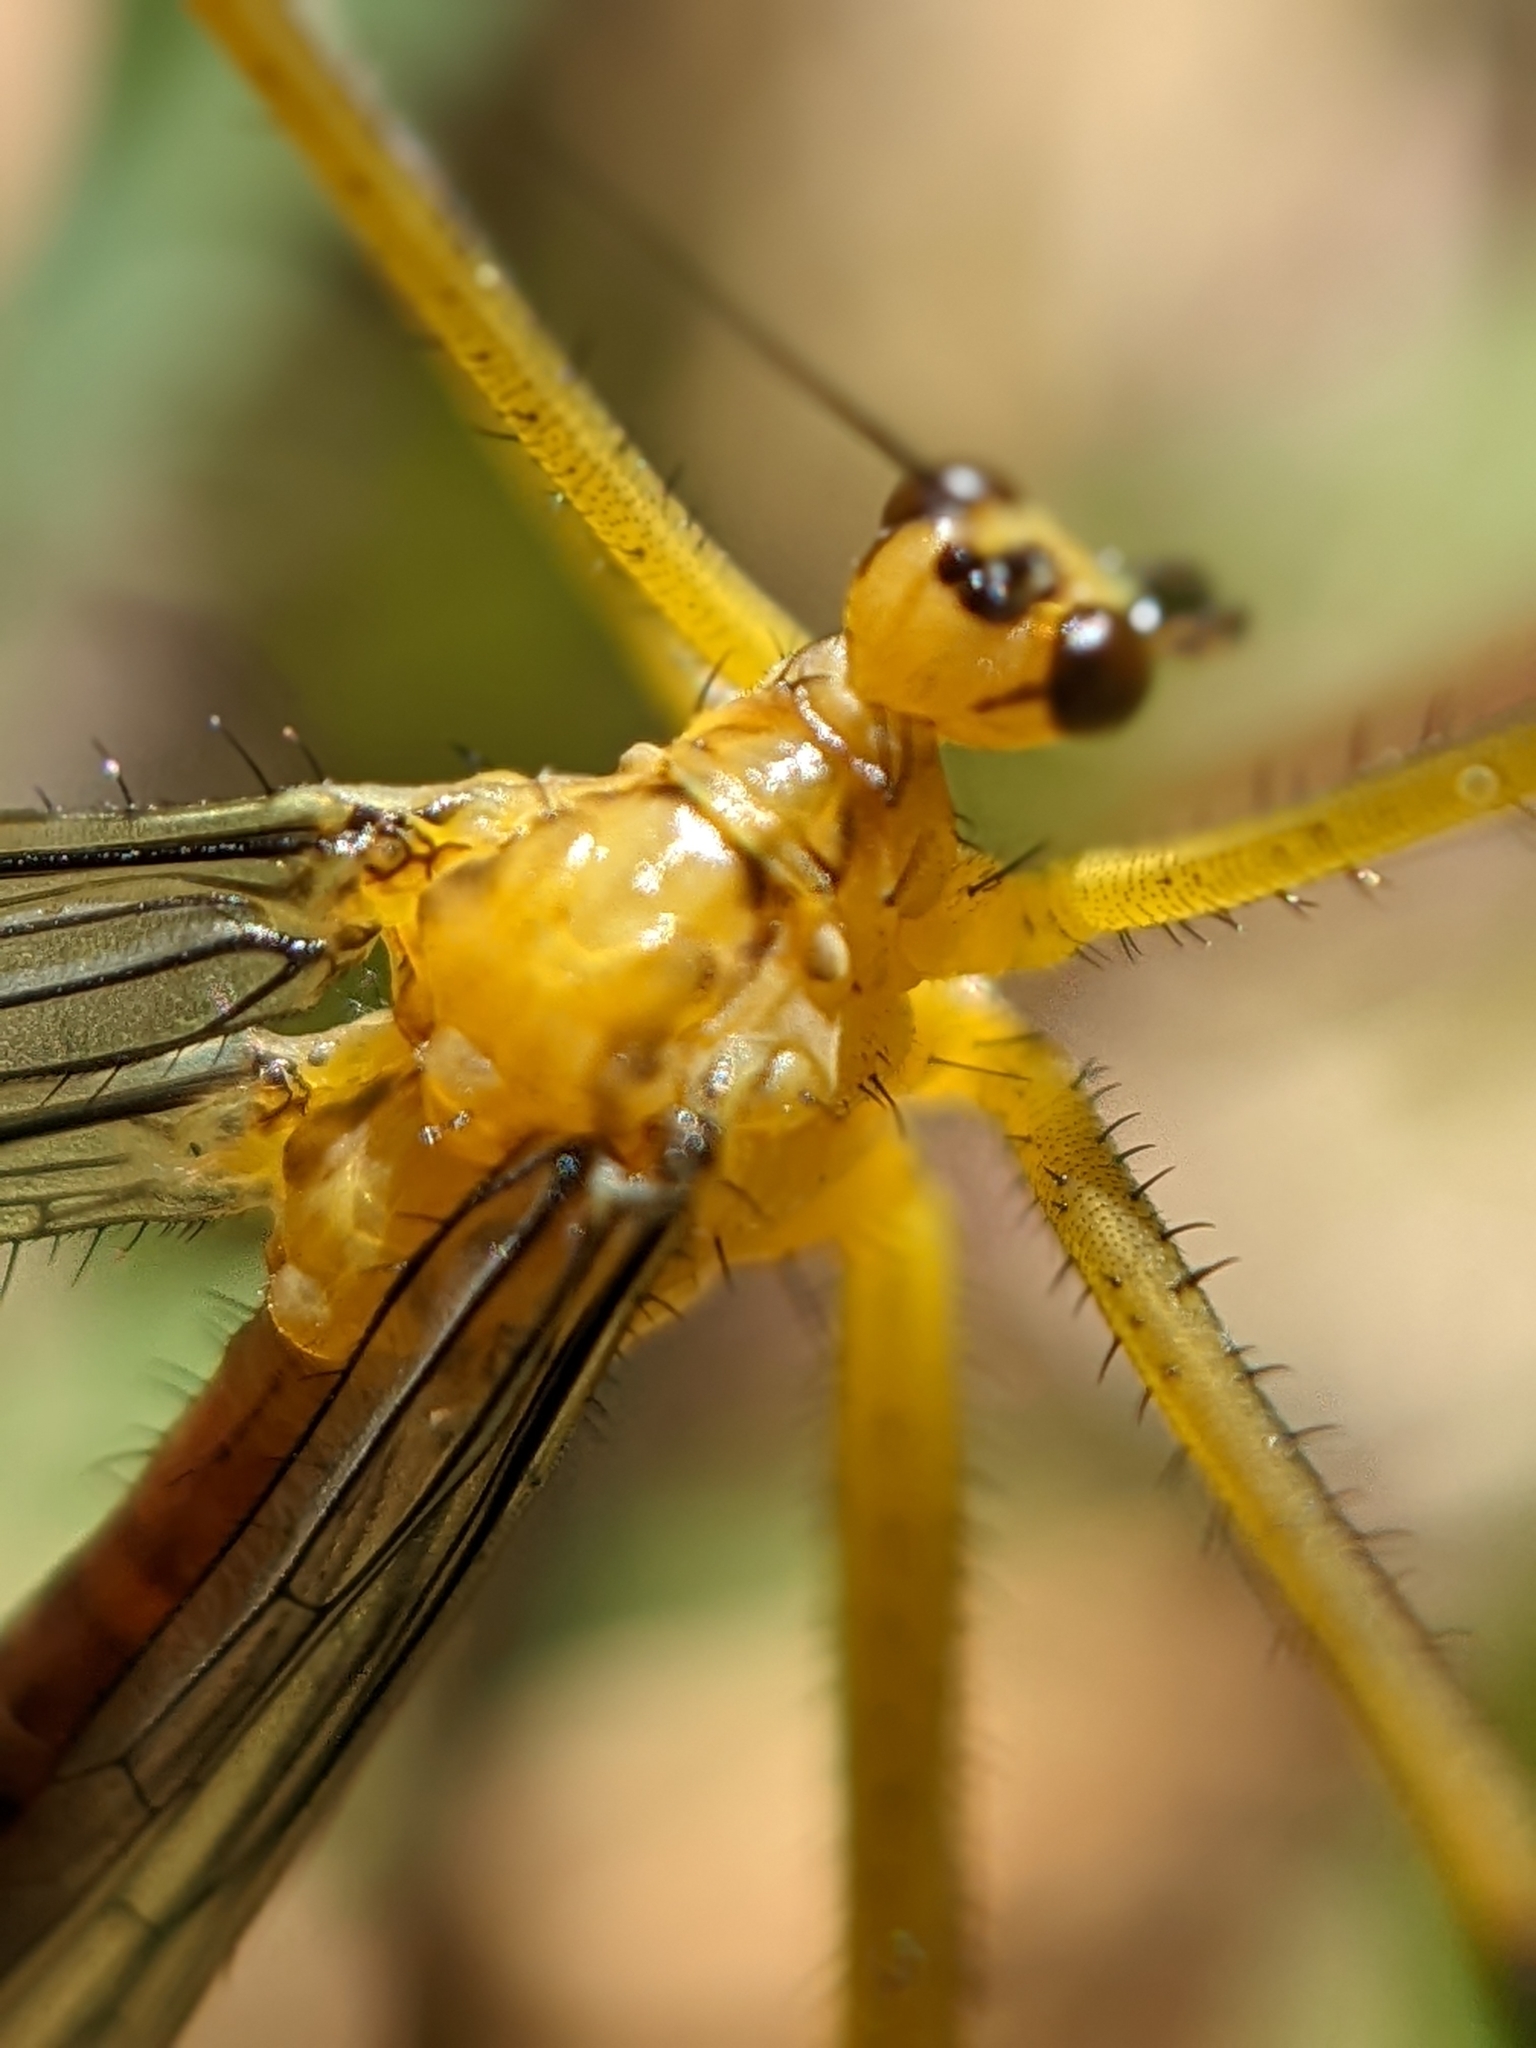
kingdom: Animalia
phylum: Arthropoda
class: Insecta
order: Mecoptera
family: Bittacidae
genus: Bittacus
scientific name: Bittacus chlorostigma
